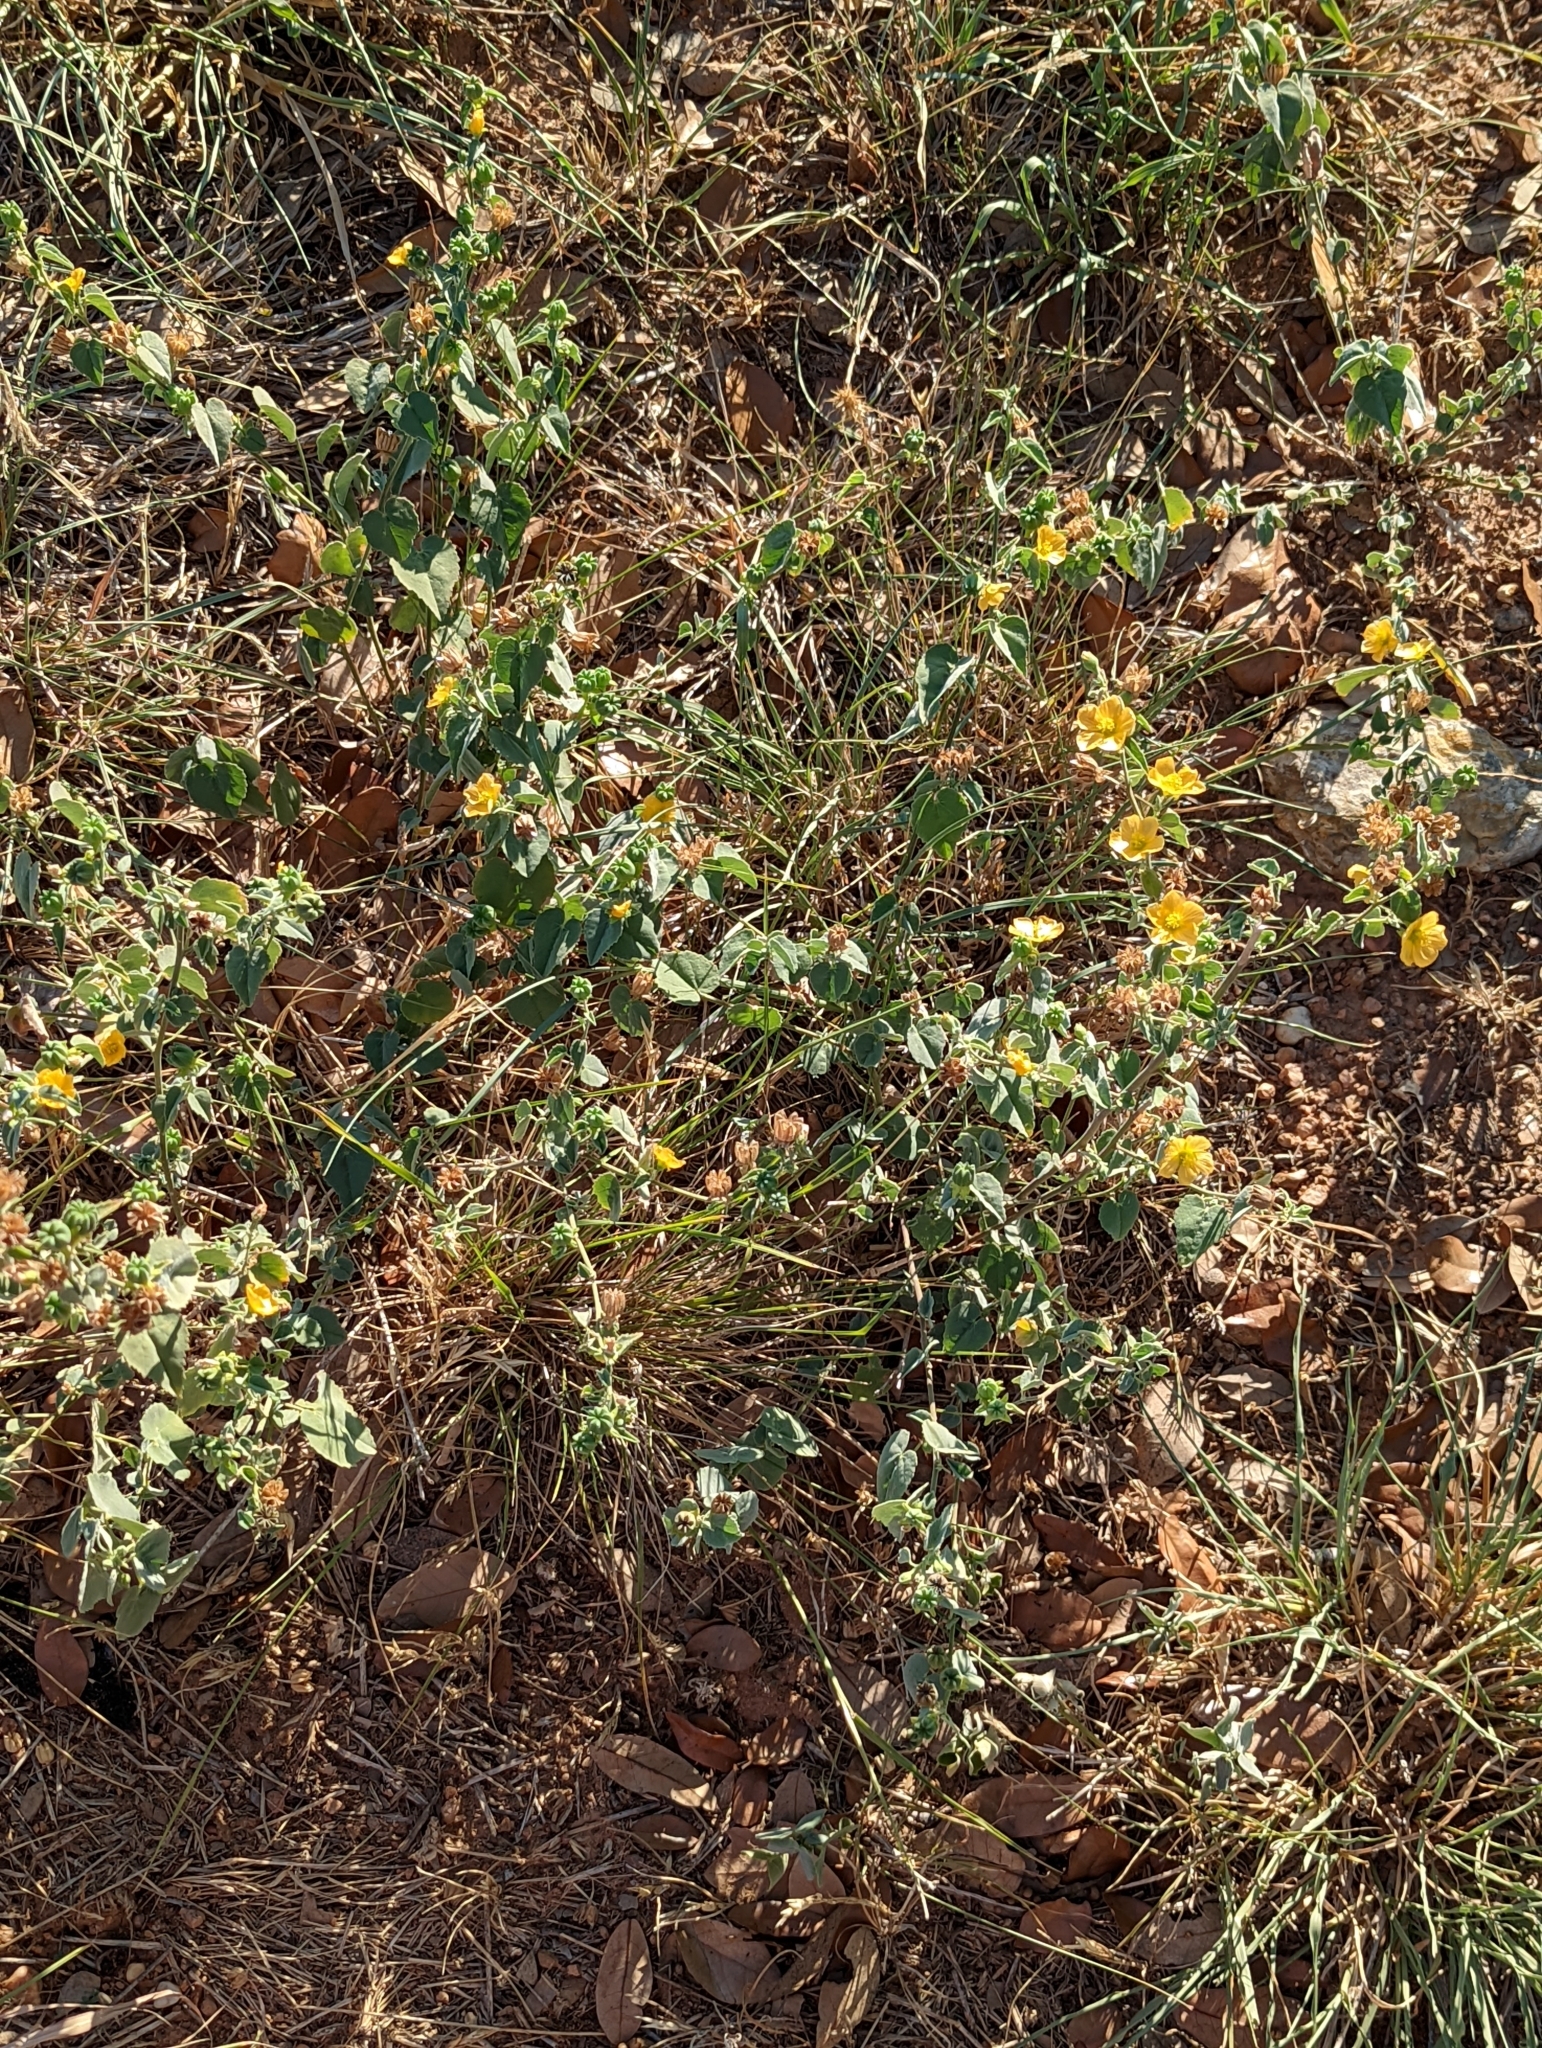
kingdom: Plantae
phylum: Tracheophyta
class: Magnoliopsida
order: Malvales
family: Malvaceae
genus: Abutilon
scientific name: Abutilon fruticosum
